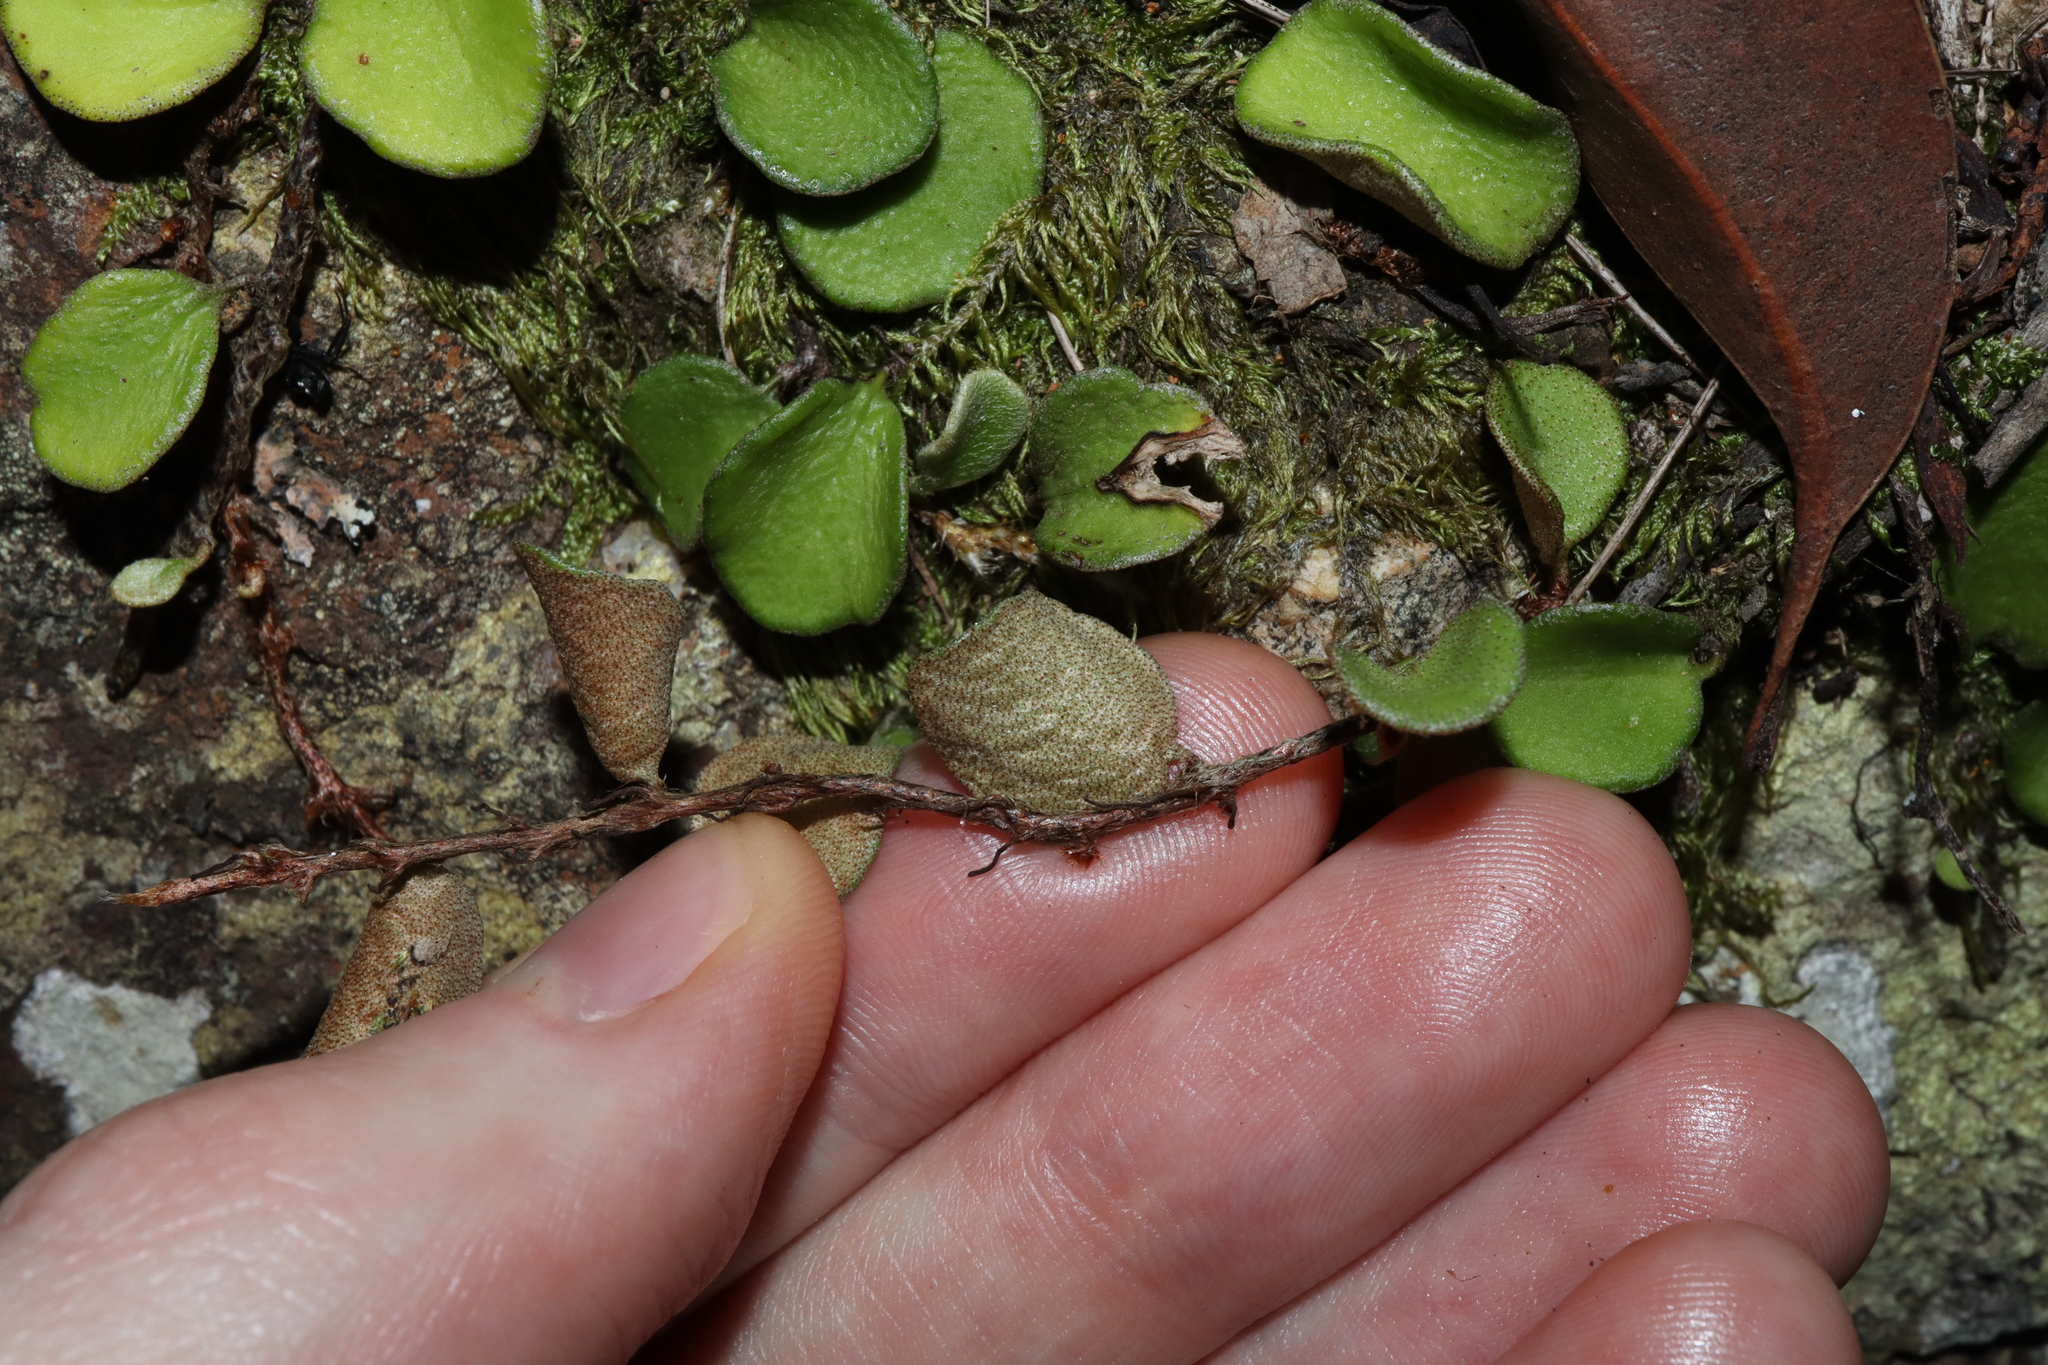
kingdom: Plantae
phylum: Tracheophyta
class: Polypodiopsida
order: Polypodiales
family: Polypodiaceae
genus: Pyrrosia
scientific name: Pyrrosia rupestris
